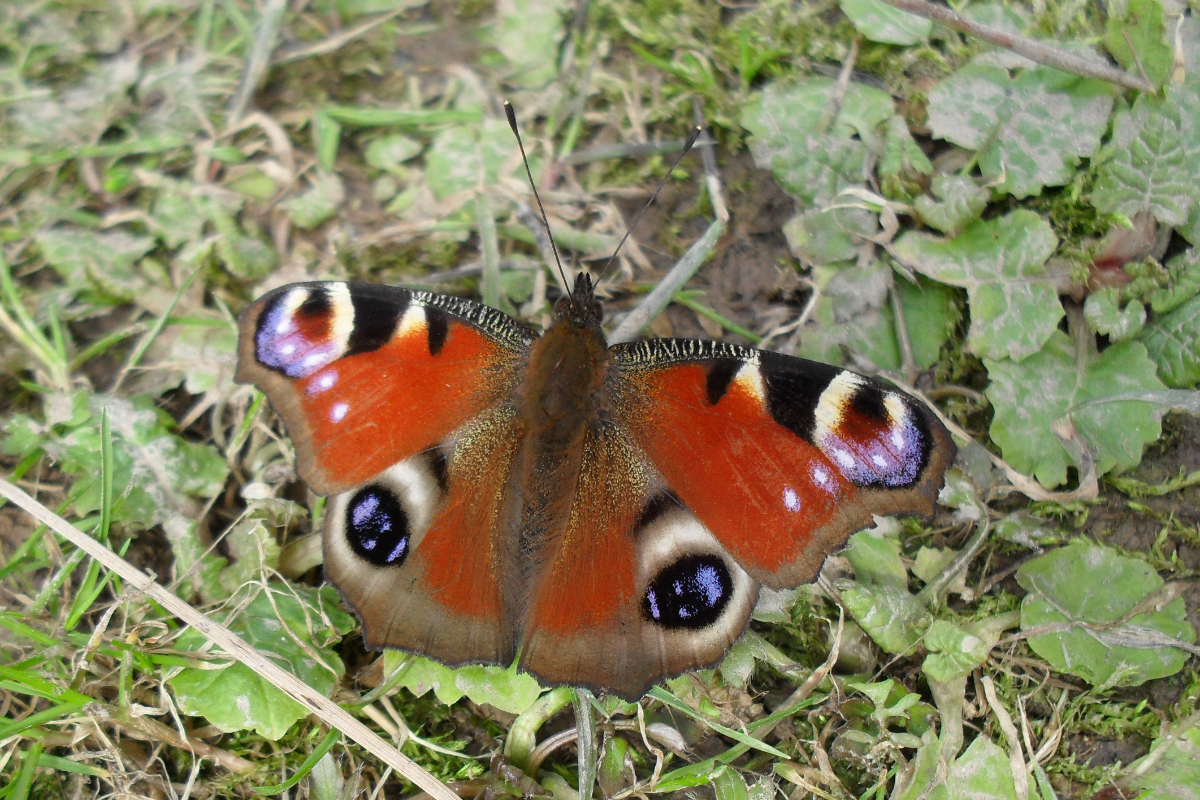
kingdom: Animalia
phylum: Arthropoda
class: Insecta
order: Lepidoptera
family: Nymphalidae
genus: Aglais
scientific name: Aglais io
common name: Peacock
